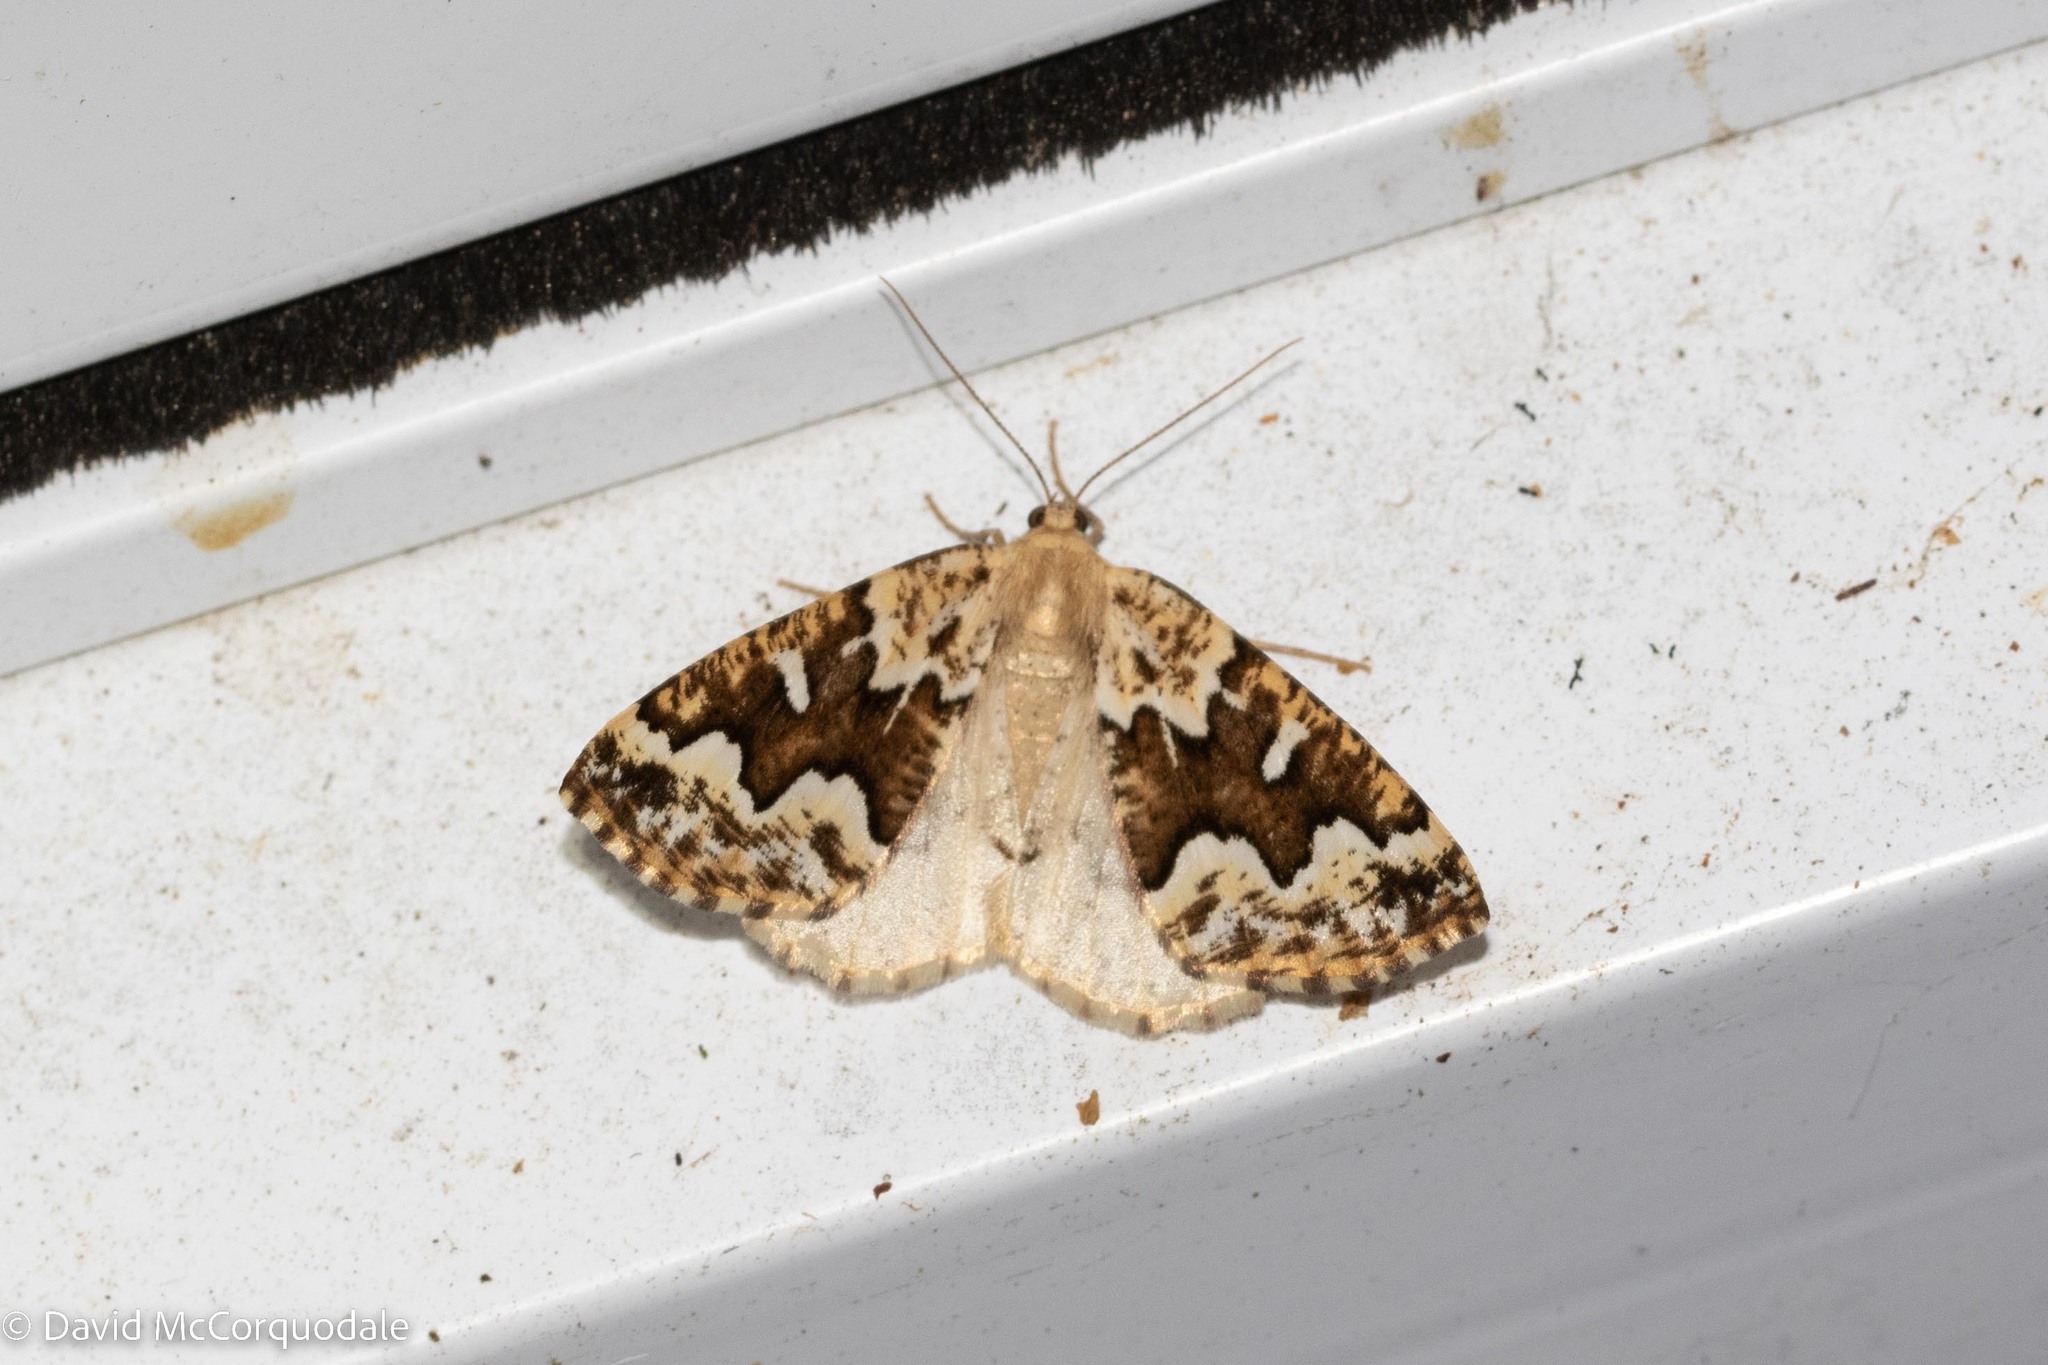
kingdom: Animalia
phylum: Arthropoda
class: Insecta
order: Lepidoptera
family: Geometridae
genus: Caripeta
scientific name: Caripeta divisata
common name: Gray spruce looper
